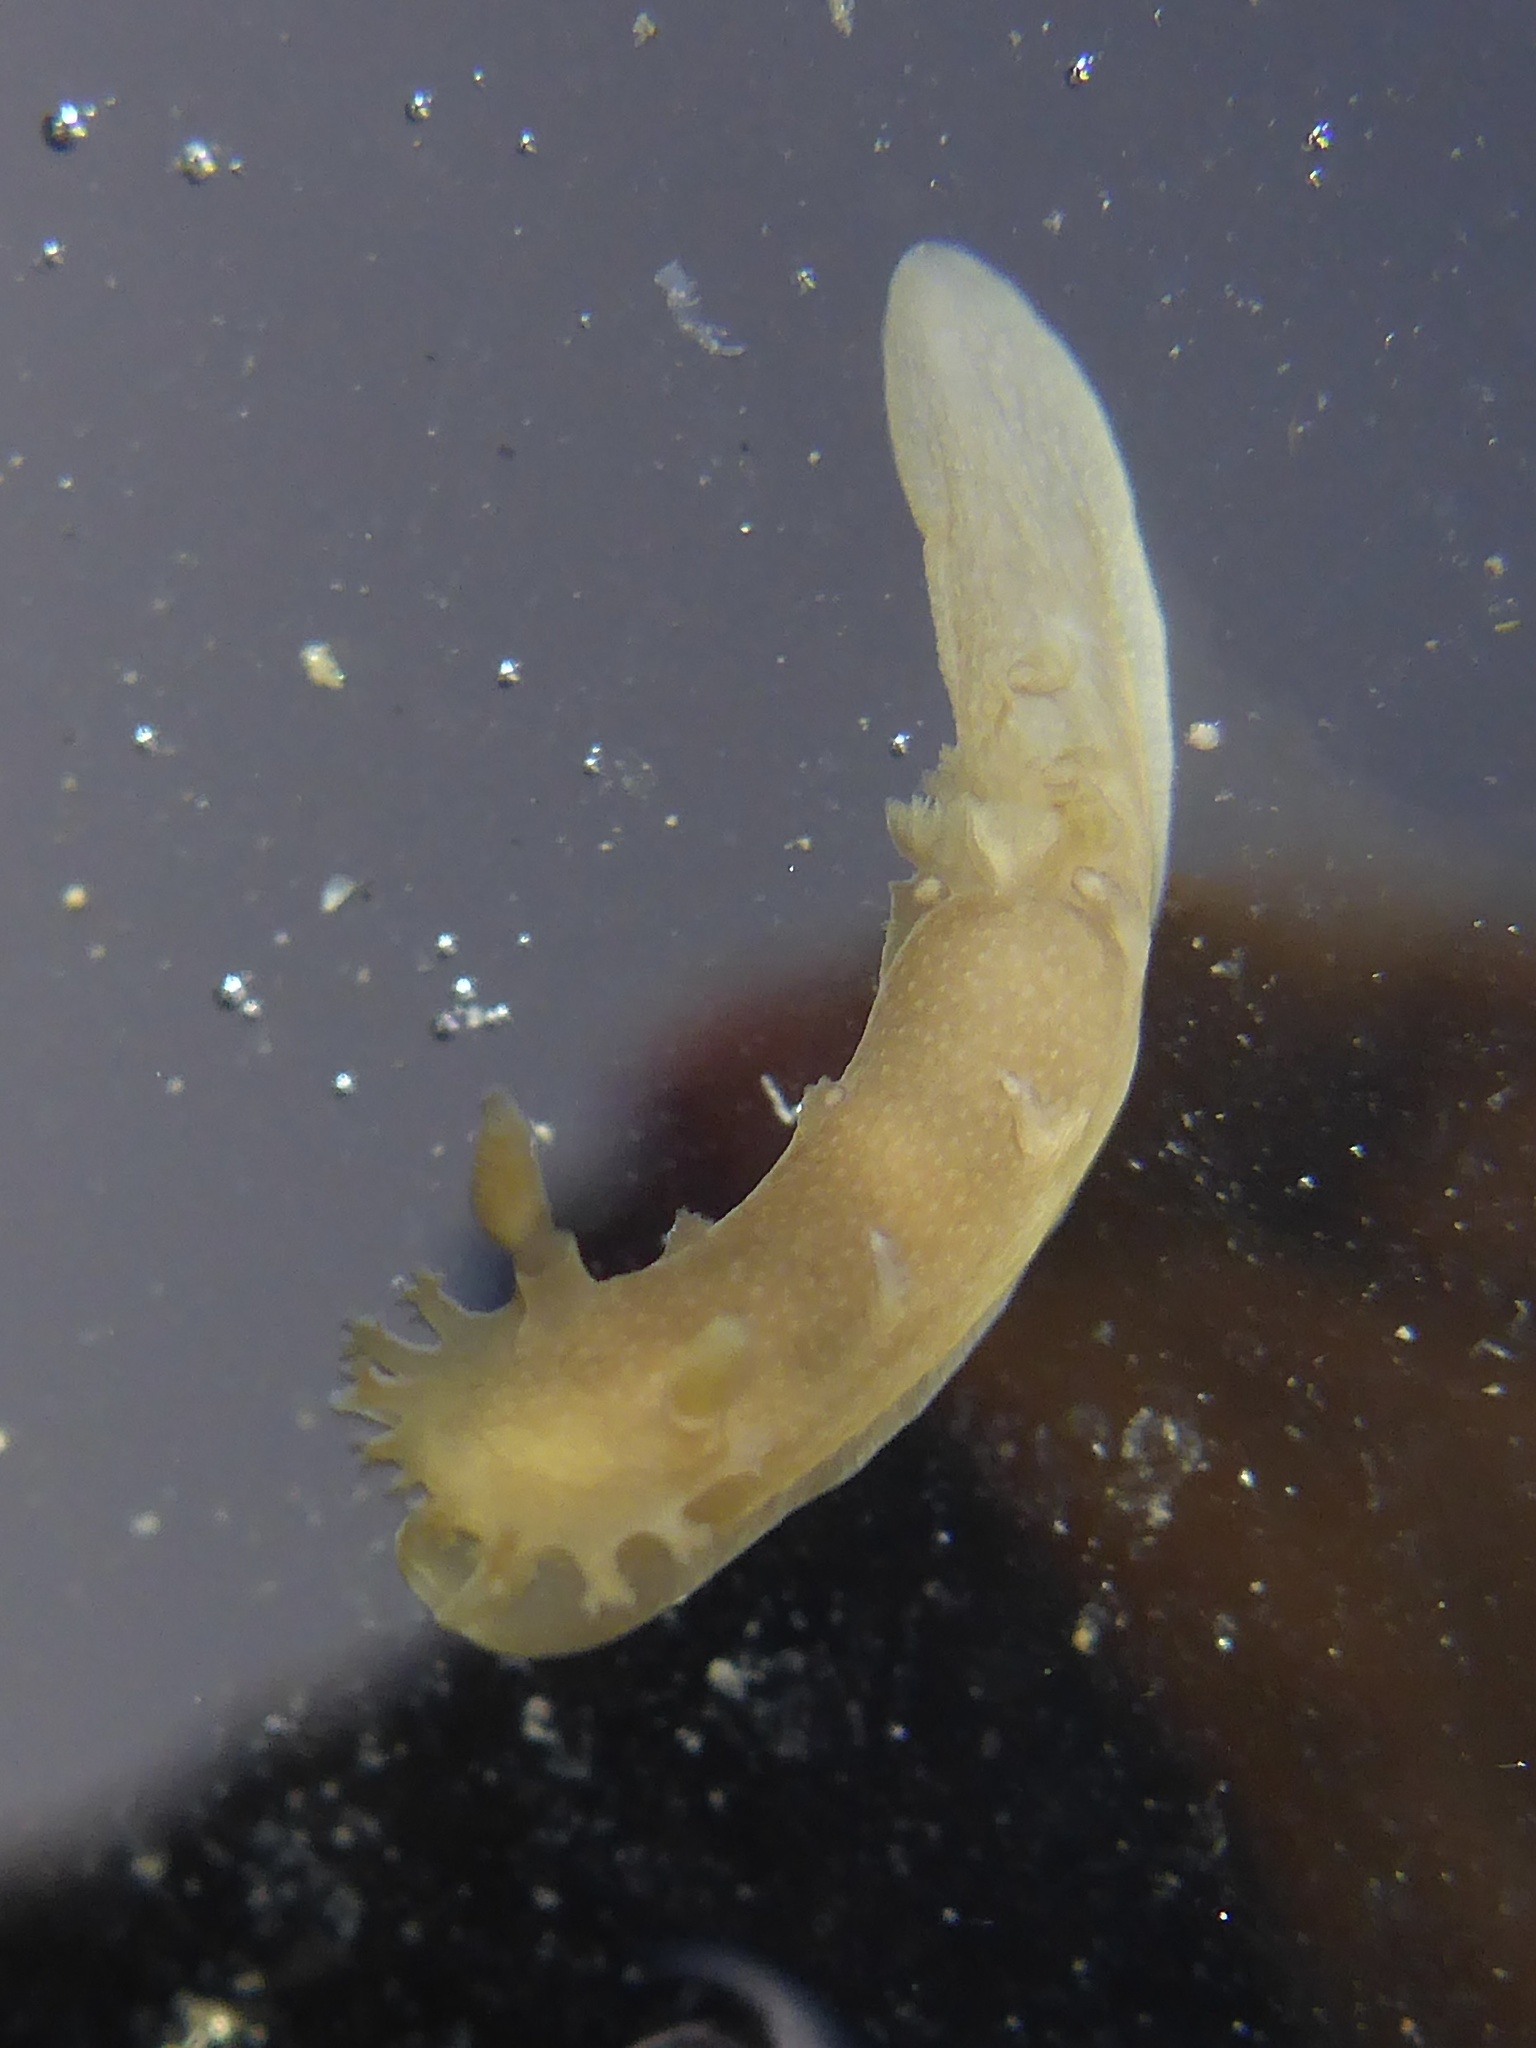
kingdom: Animalia
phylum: Mollusca
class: Gastropoda
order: Nudibranchia
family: Polyceridae
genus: Triopha
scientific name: Triopha maculata
